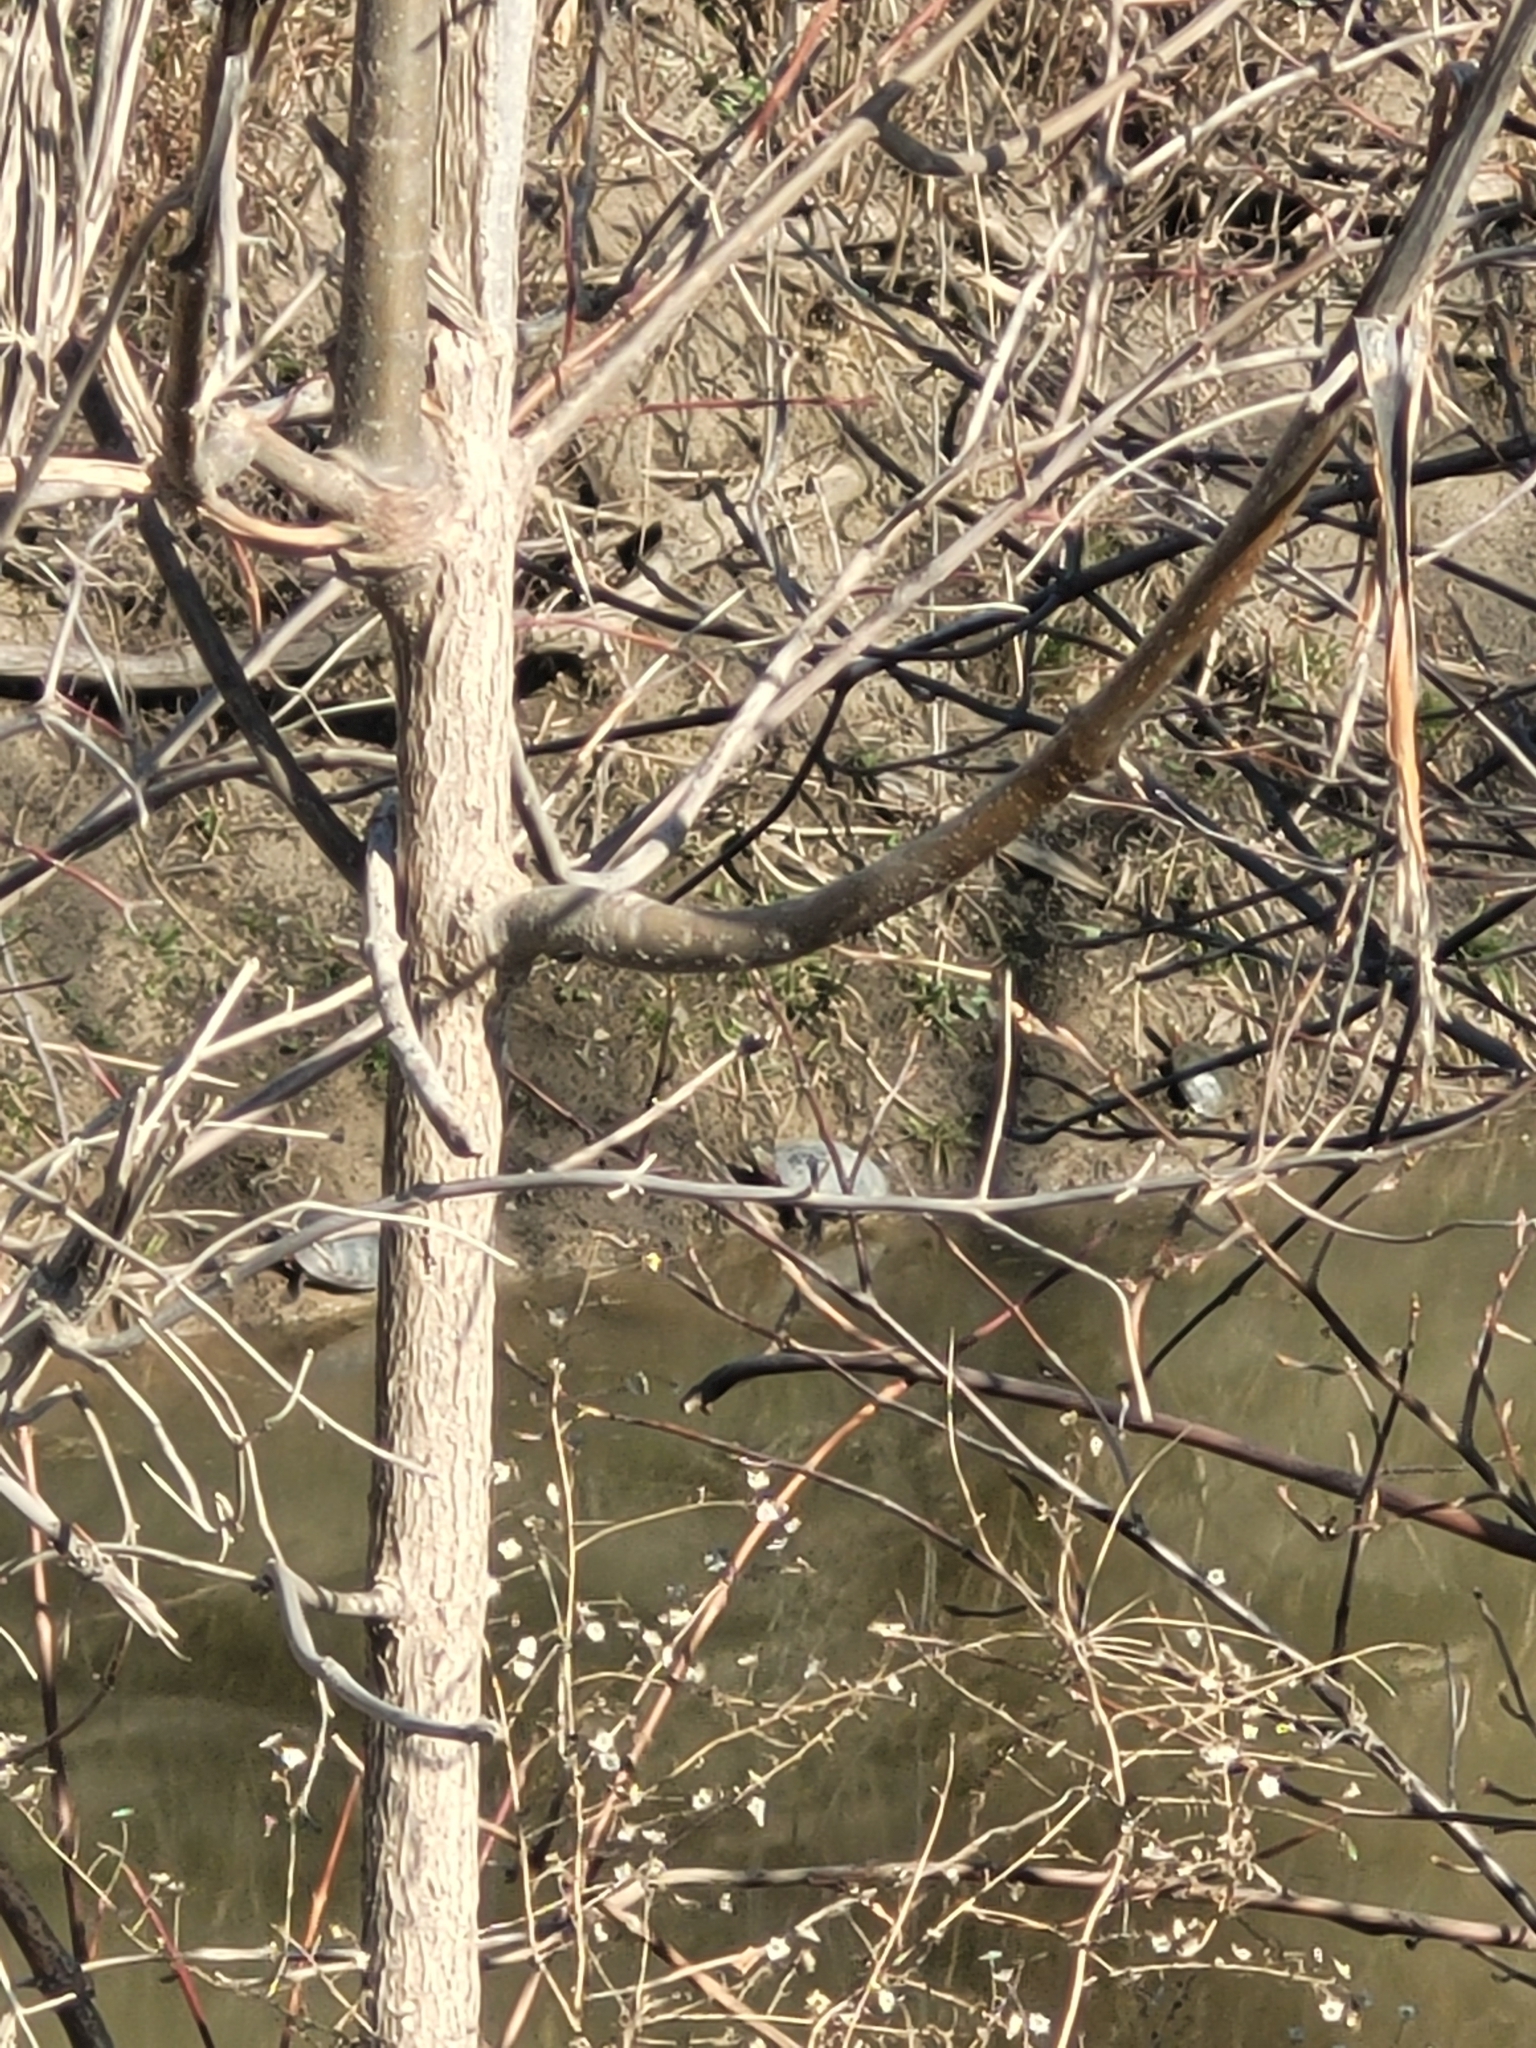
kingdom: Animalia
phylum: Chordata
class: Testudines
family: Emydidae
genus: Chrysemys
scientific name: Chrysemys picta
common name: Painted turtle
